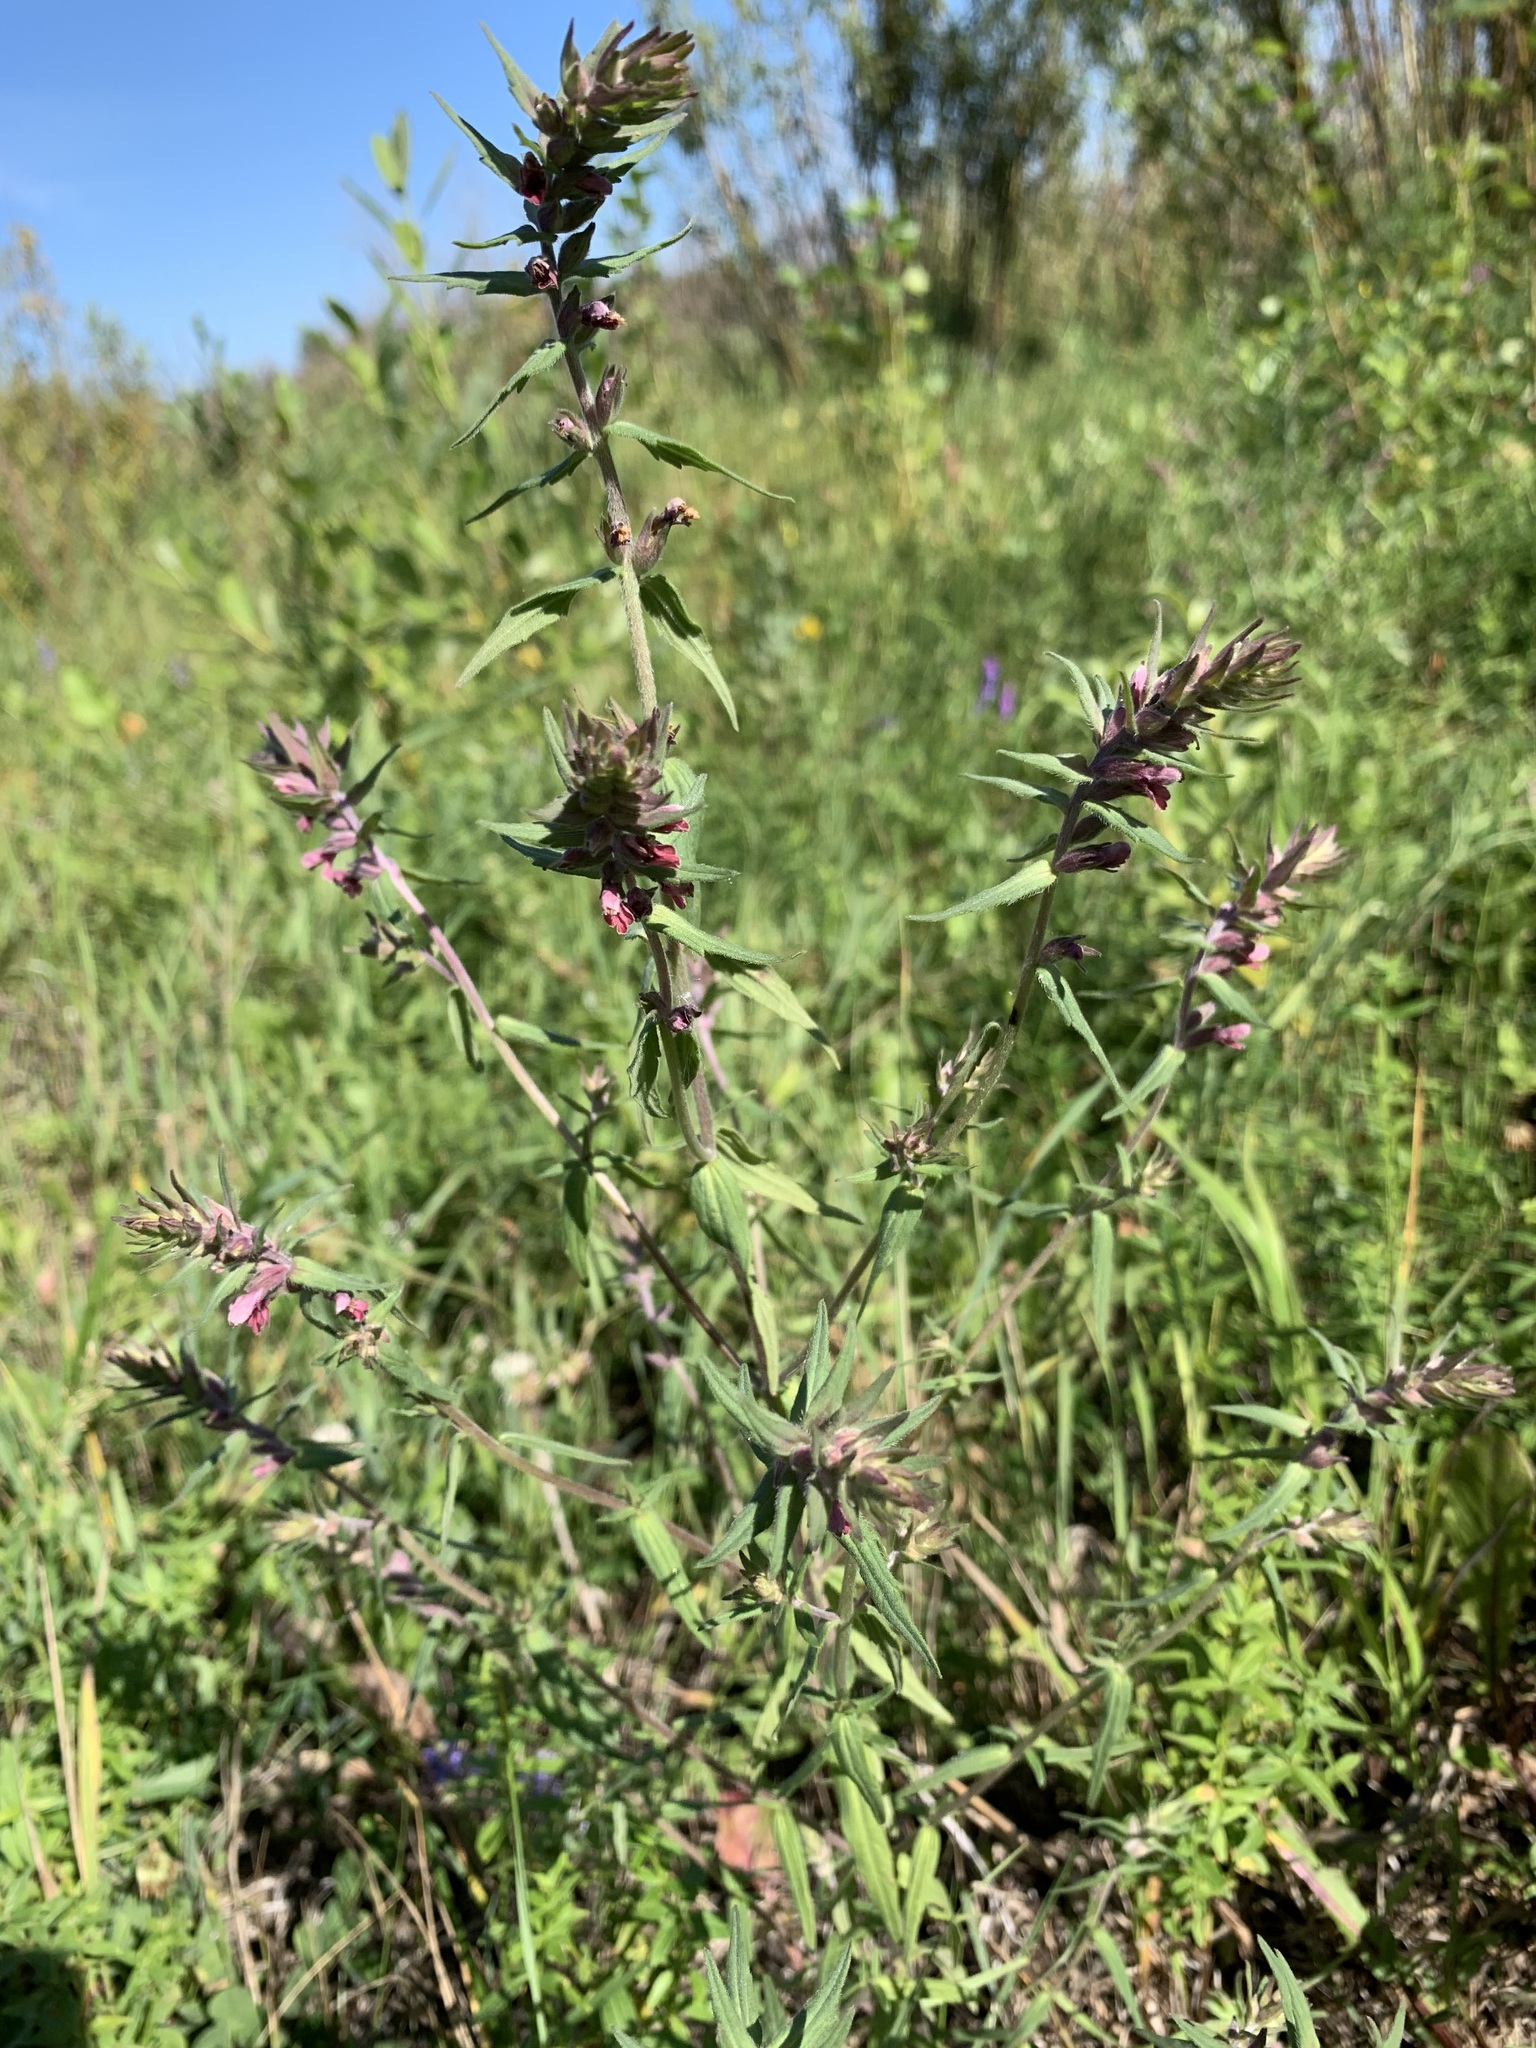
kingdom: Plantae
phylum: Tracheophyta
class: Magnoliopsida
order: Lamiales
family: Orobanchaceae
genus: Odontites
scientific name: Odontites vulgaris
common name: Broomrape
